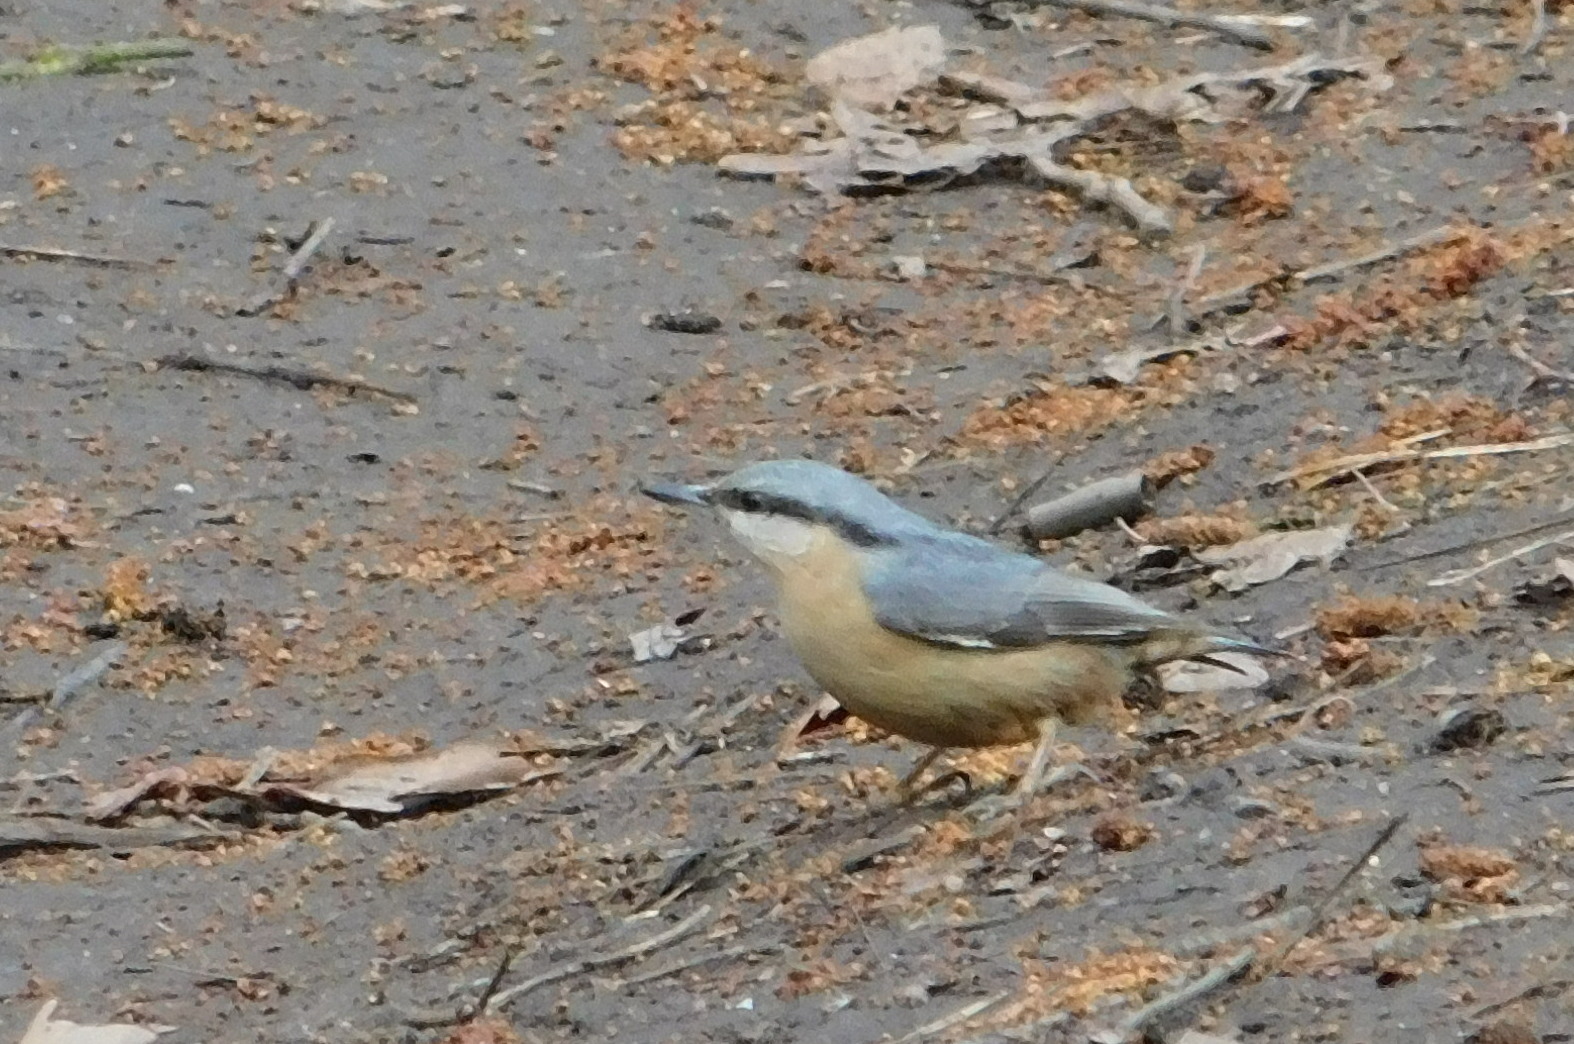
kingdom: Animalia
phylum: Chordata
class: Aves
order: Passeriformes
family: Sittidae
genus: Sitta
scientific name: Sitta europaea
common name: Eurasian nuthatch
